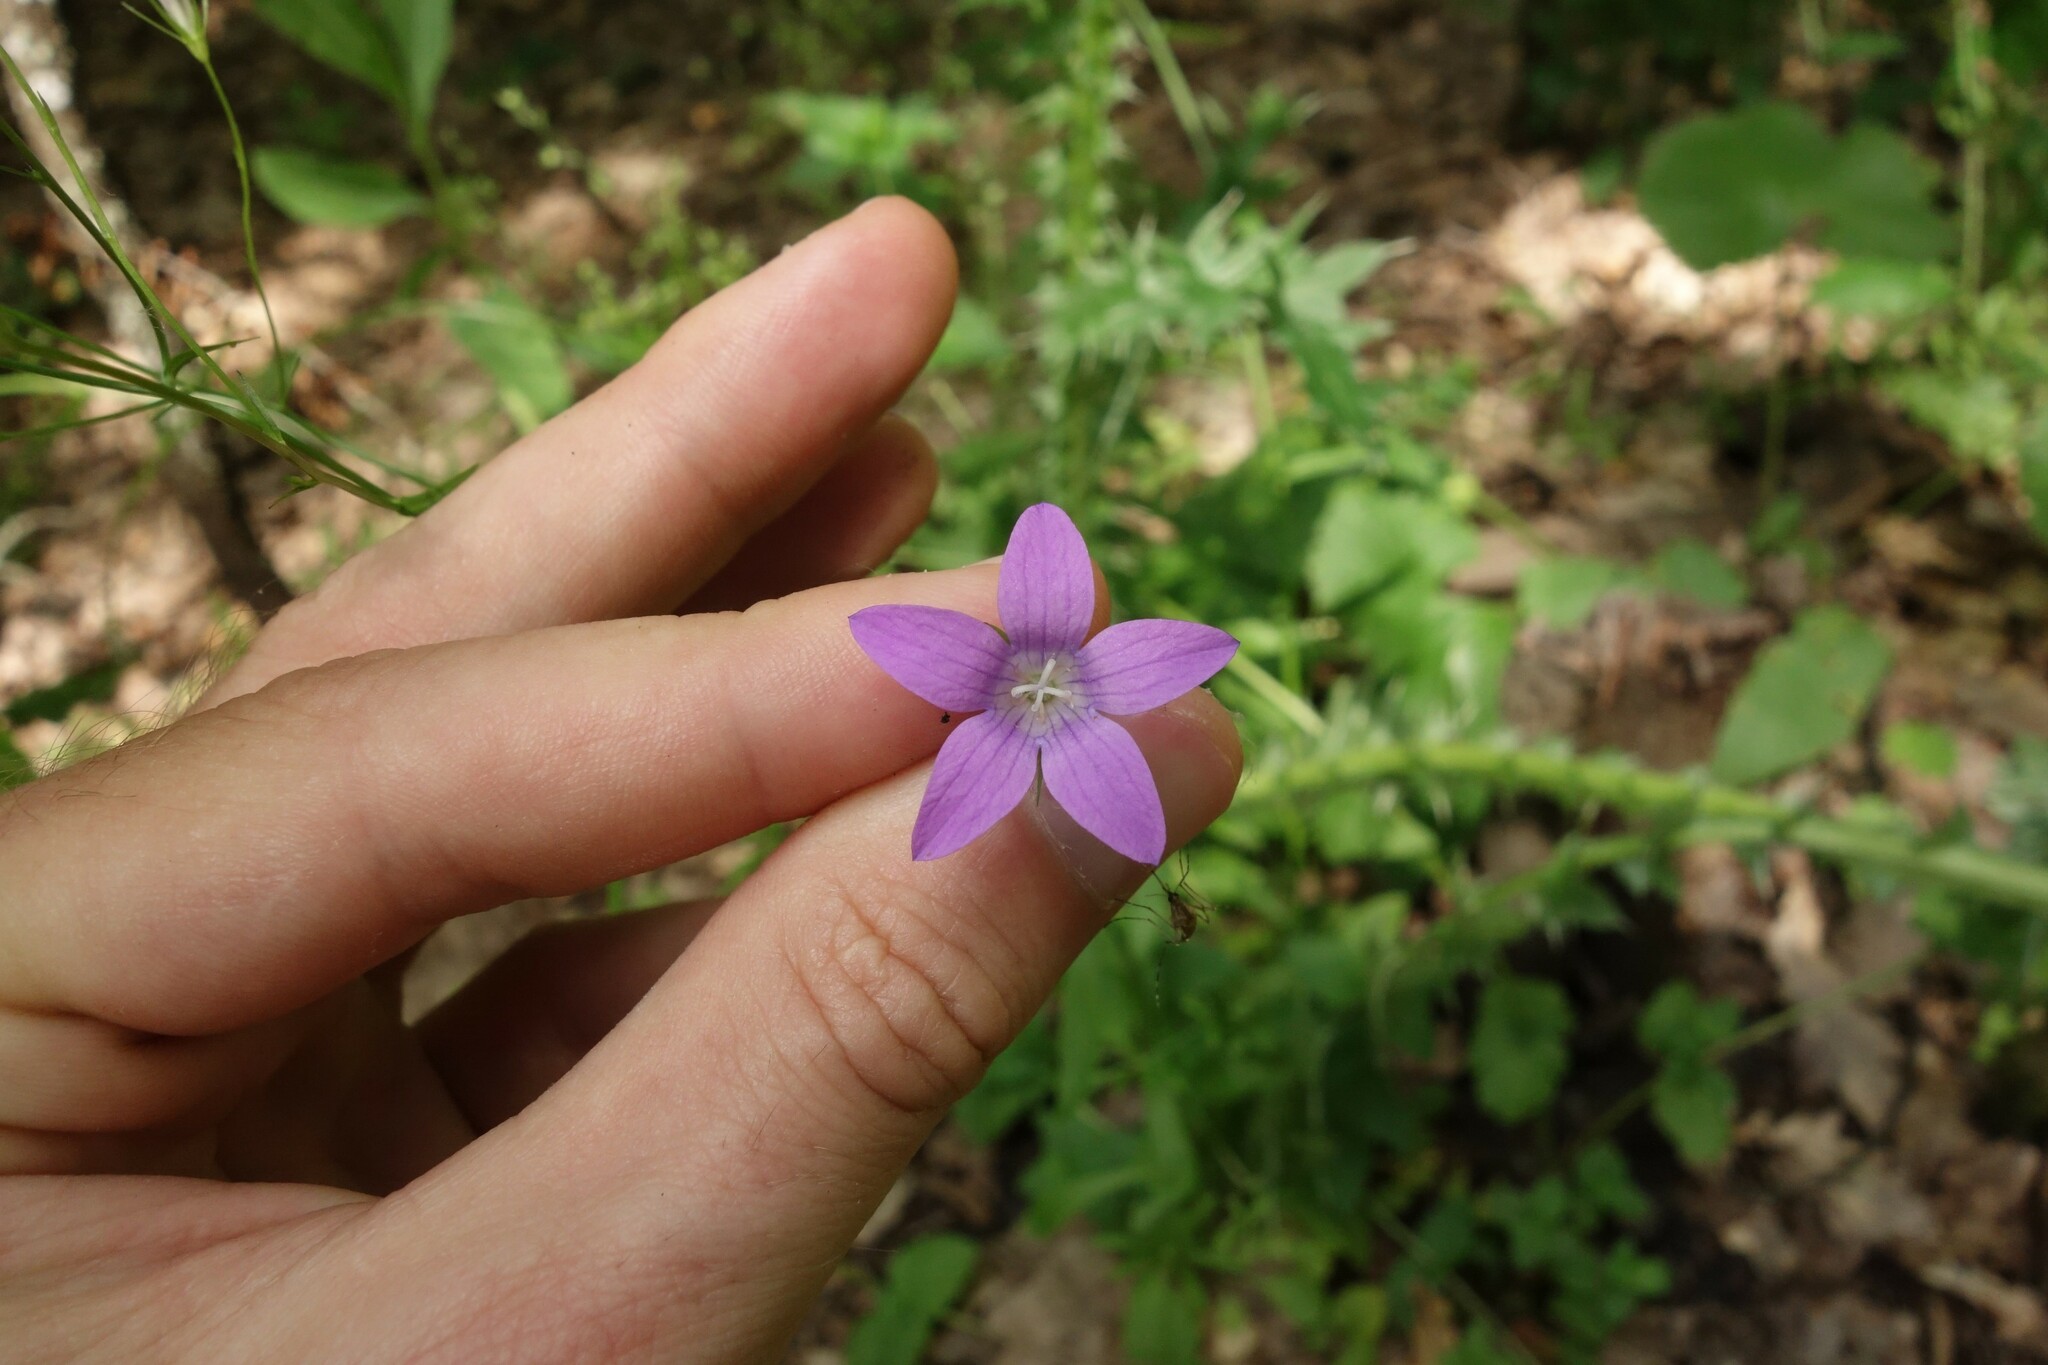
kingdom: Plantae
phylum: Tracheophyta
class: Magnoliopsida
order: Asterales
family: Campanulaceae
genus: Campanula
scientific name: Campanula patula
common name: Spreading bellflower
